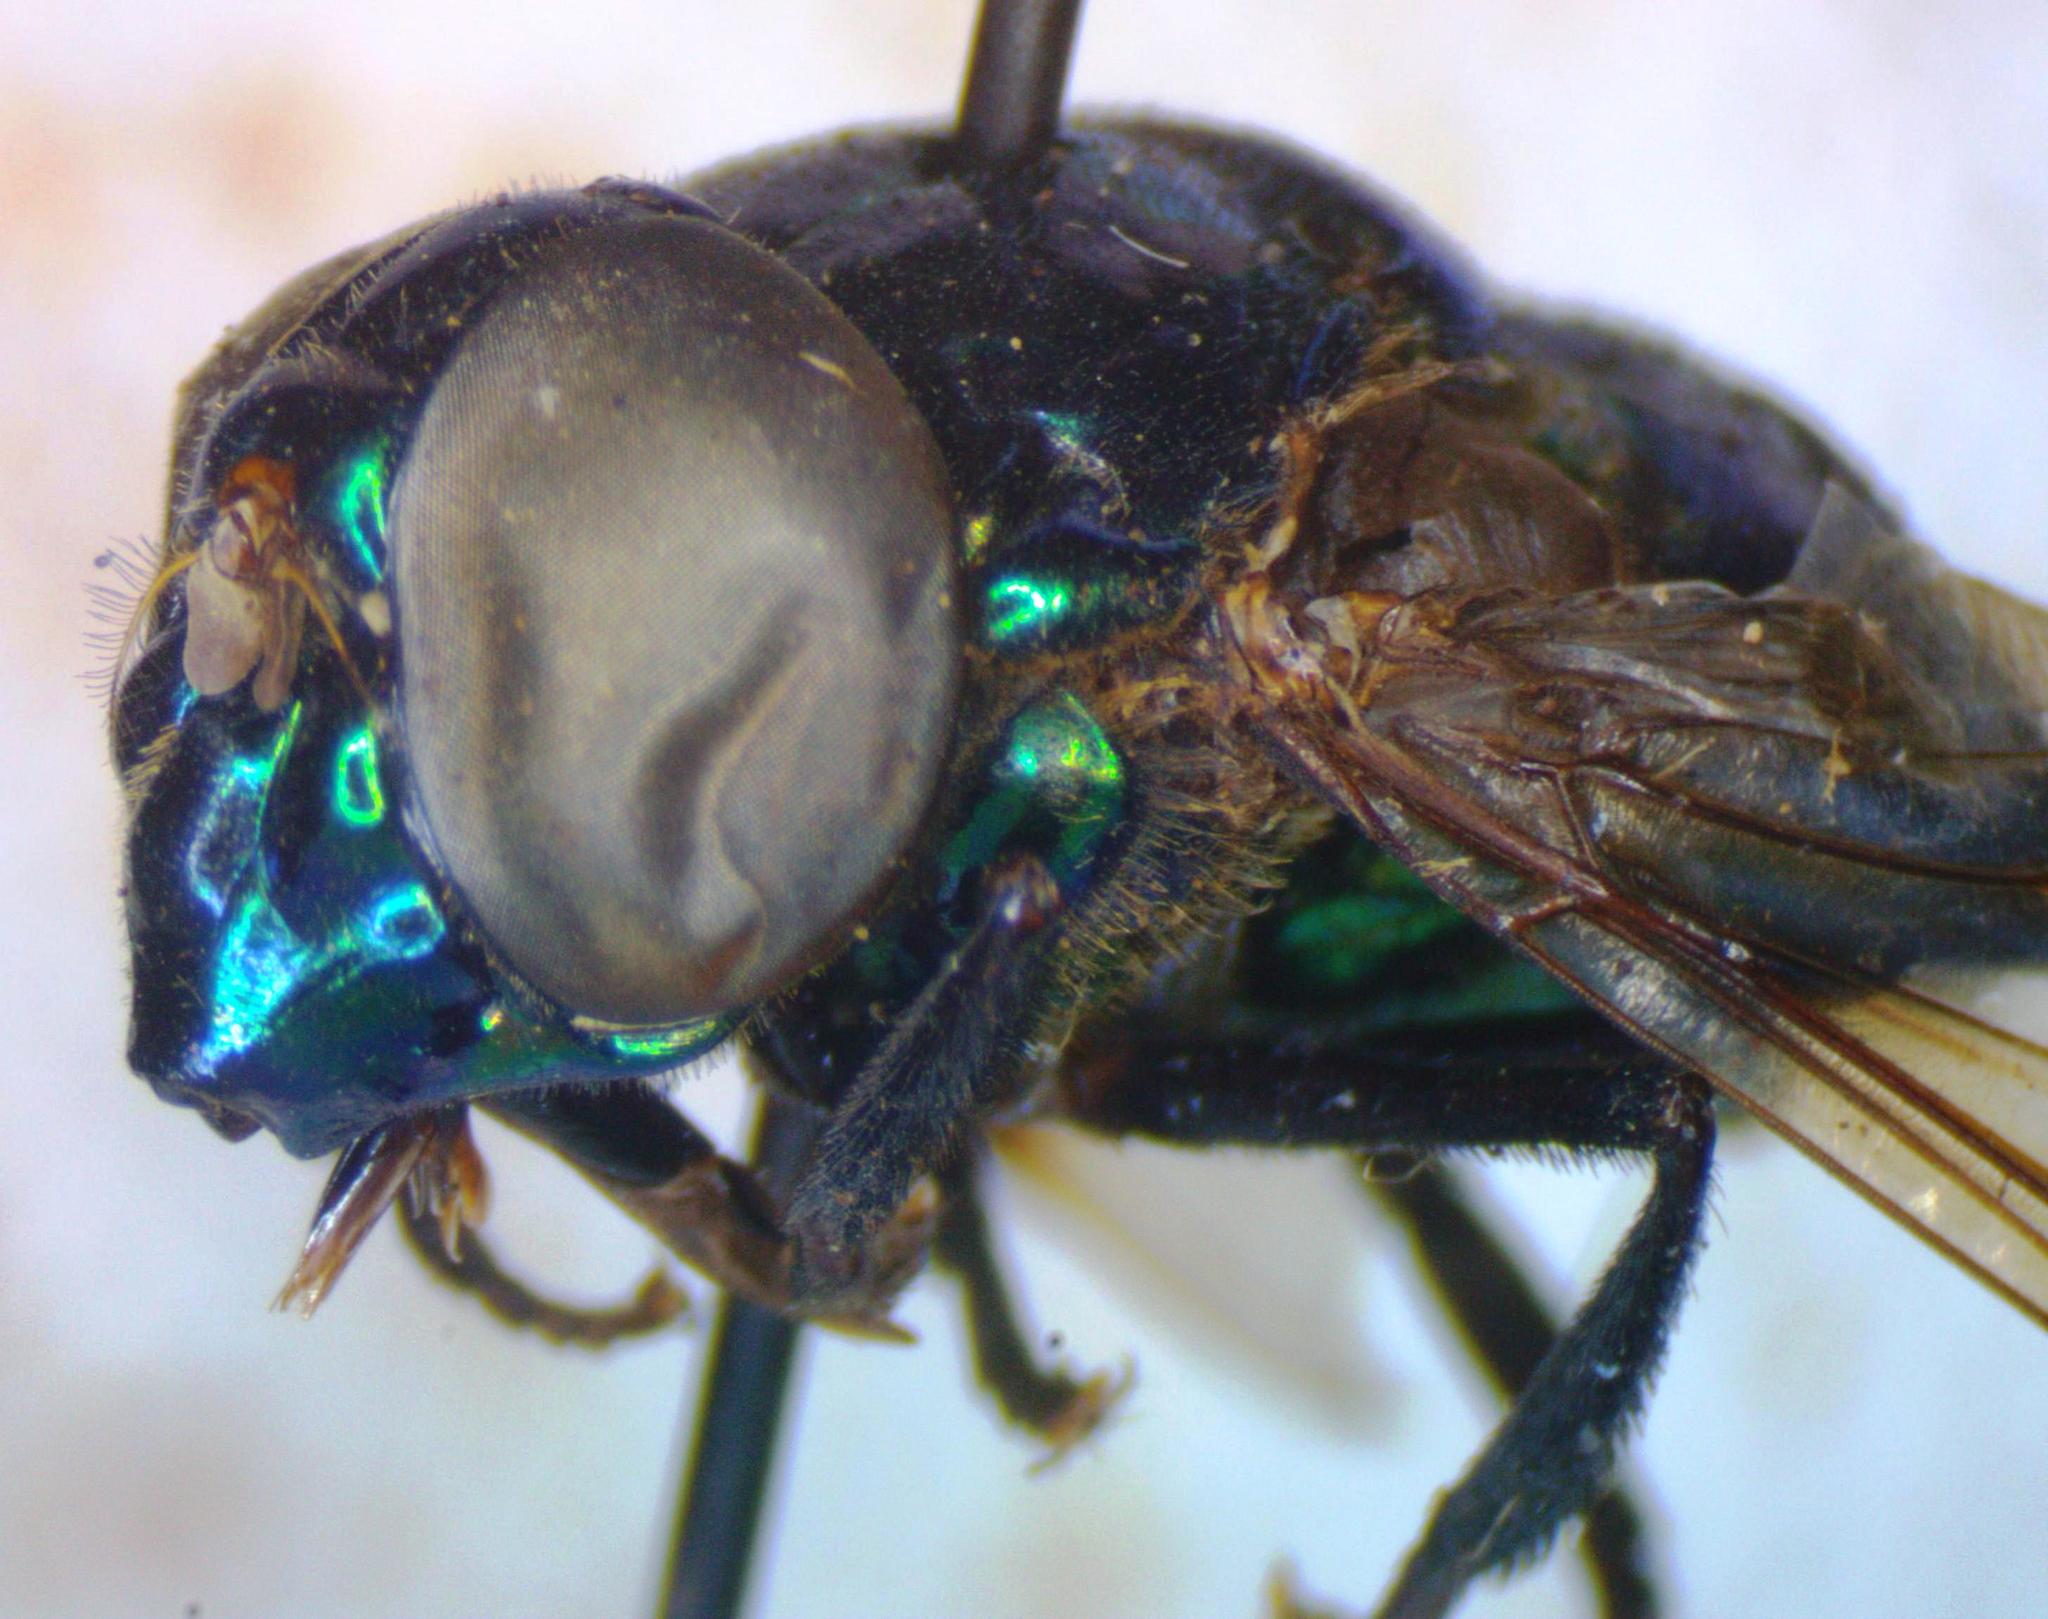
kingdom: Animalia
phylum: Arthropoda
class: Insecta
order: Diptera
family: Syrphidae
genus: Ornidia
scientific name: Ornidia obesa
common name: Syrphid fly
